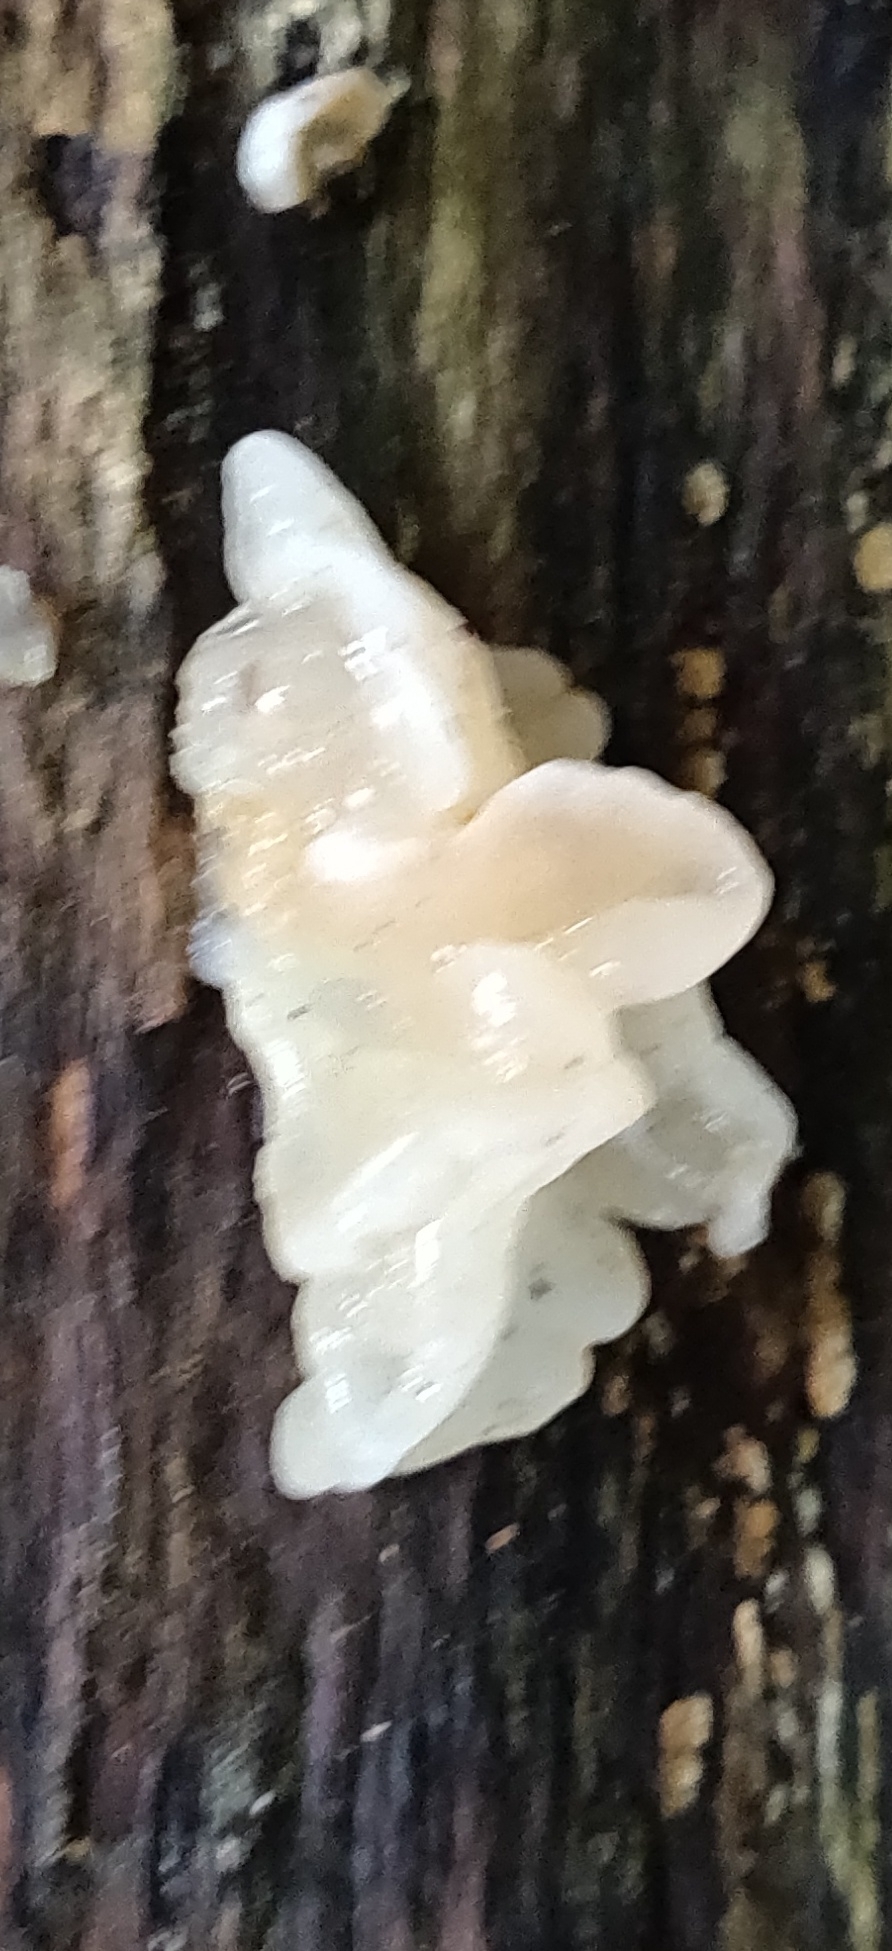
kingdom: Fungi
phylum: Basidiomycota
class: Agaricomycetes
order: Auriculariales
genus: Ductifera
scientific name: Ductifera pululahuana
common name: White jelly fungus
